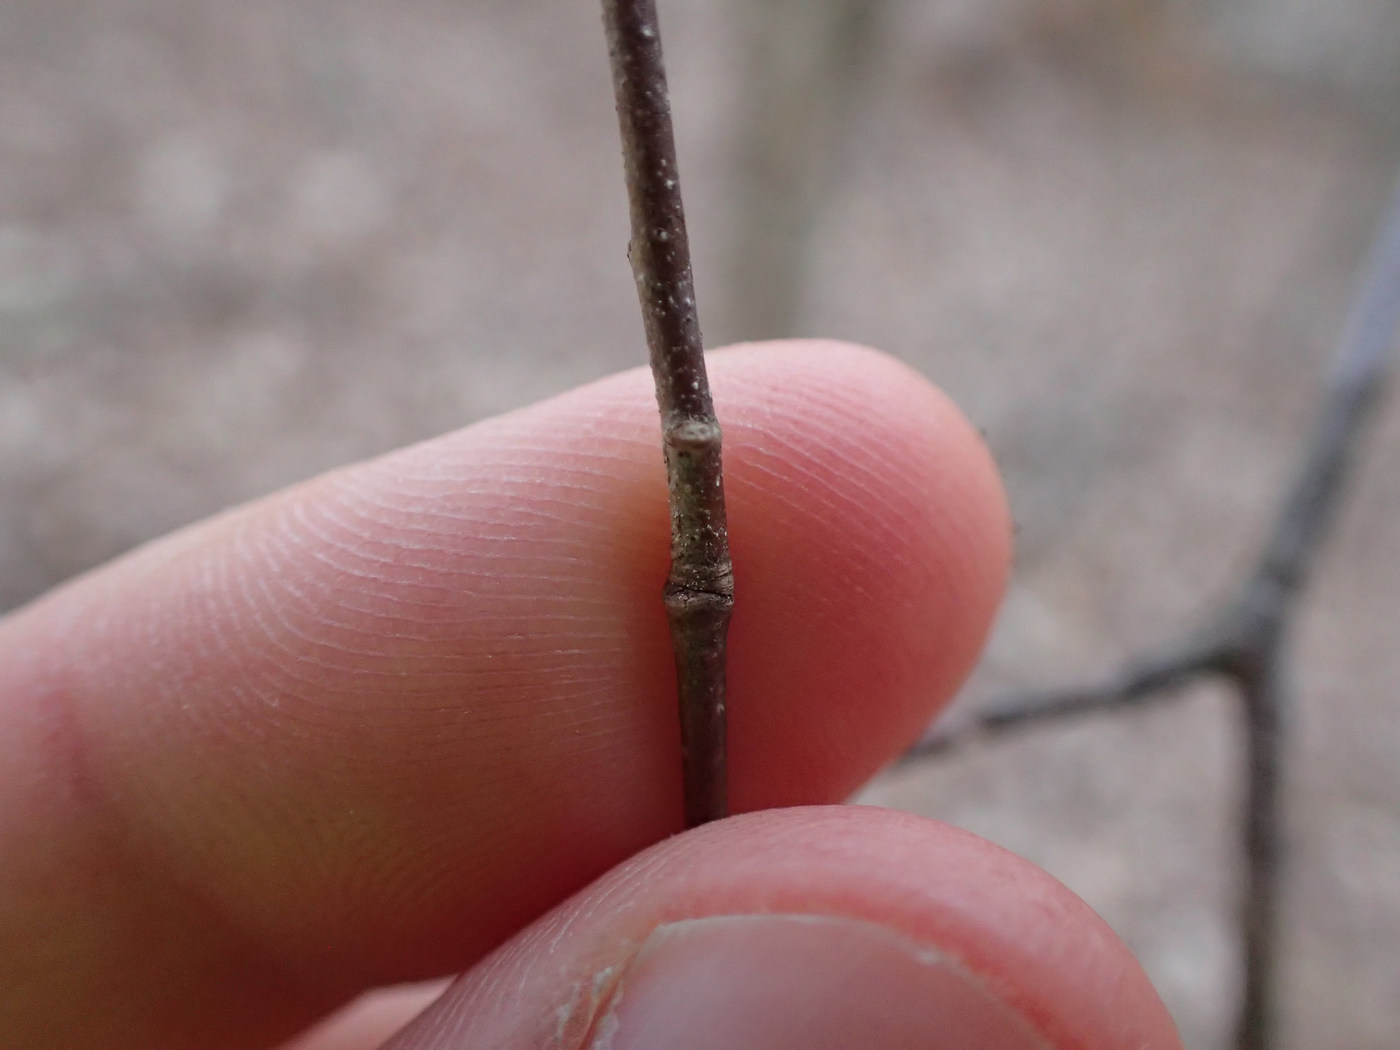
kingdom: Plantae
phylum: Tracheophyta
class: Magnoliopsida
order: Fagales
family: Betulaceae
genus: Ostrya
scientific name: Ostrya virginiana
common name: Ironwood
